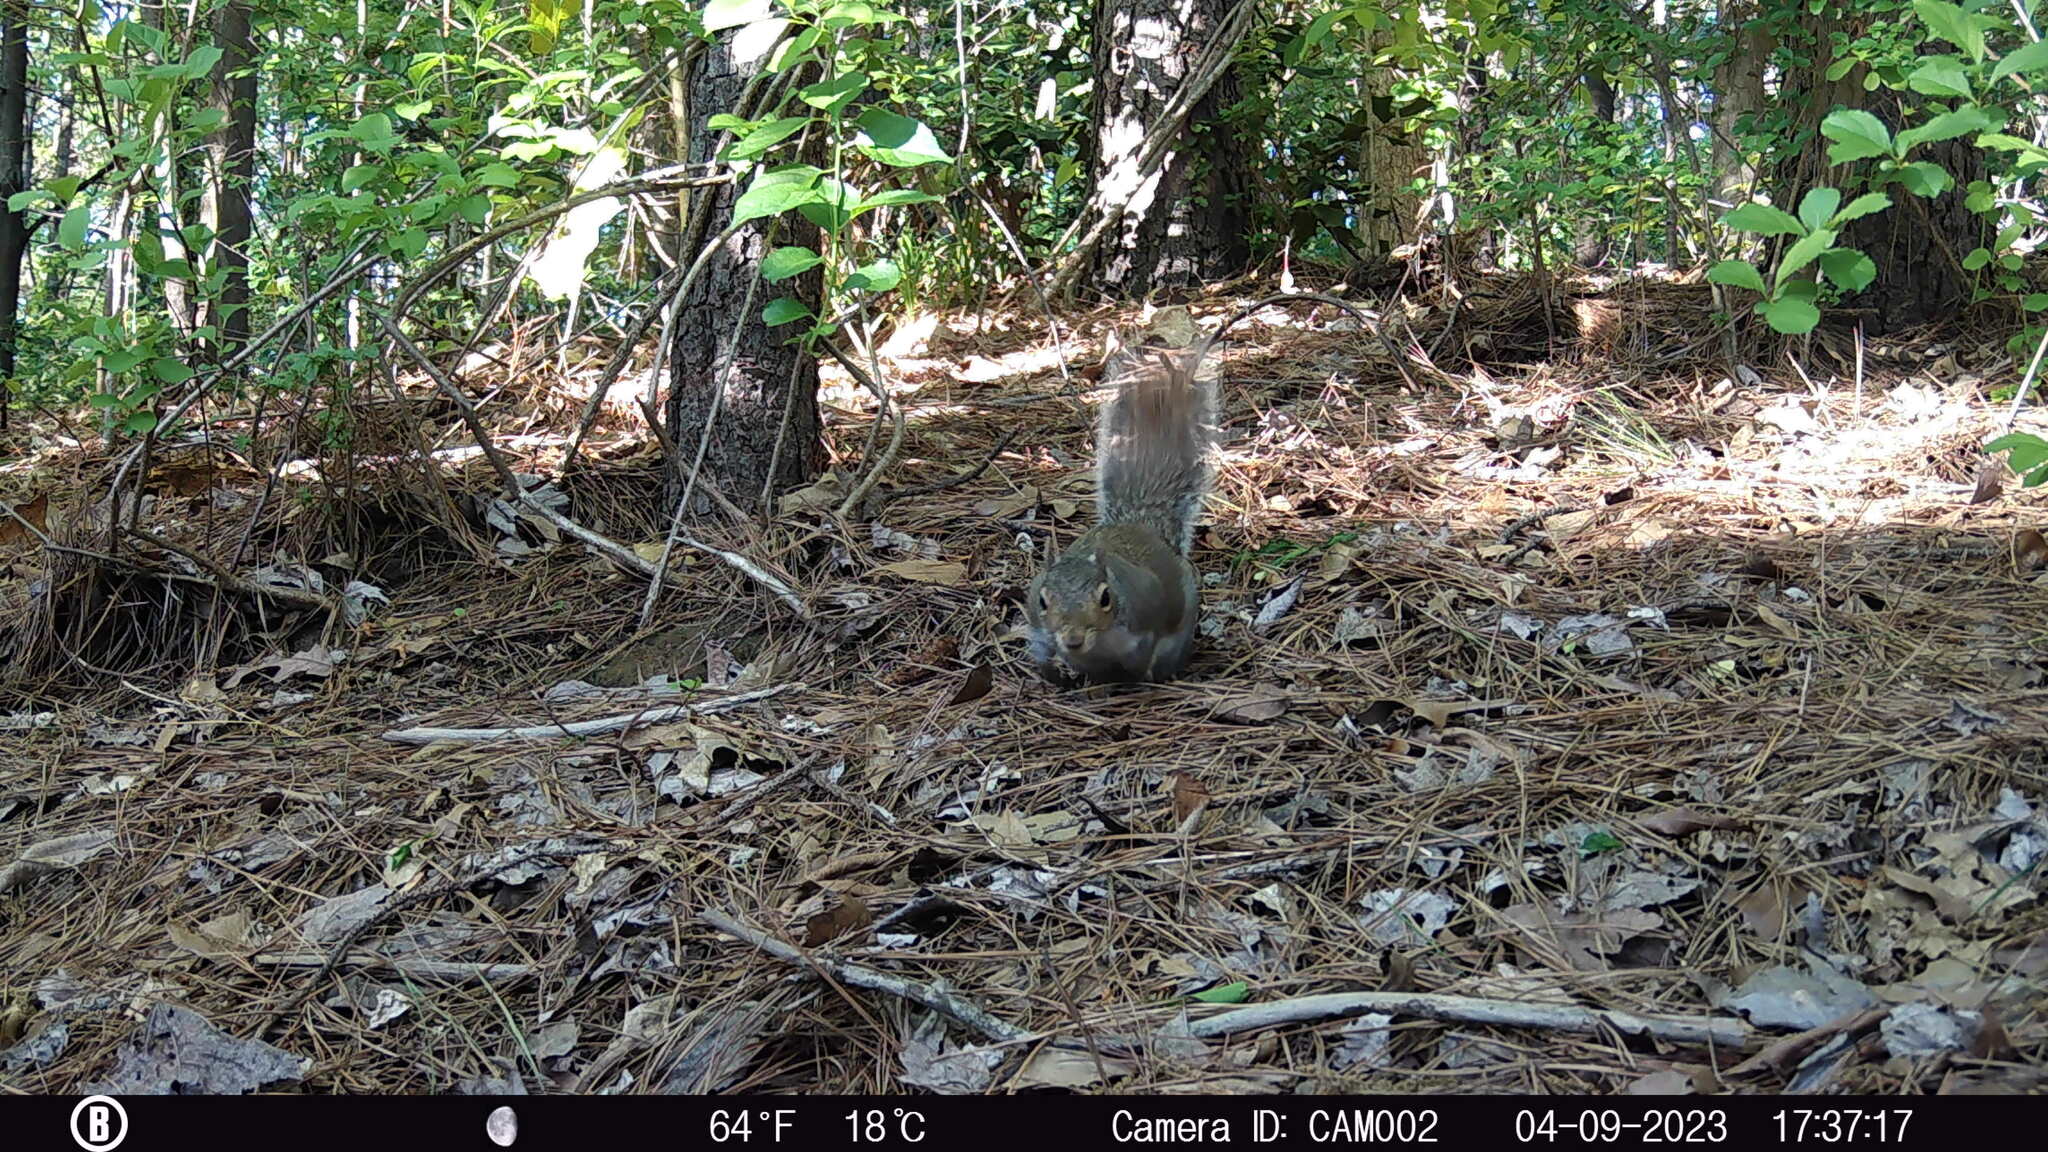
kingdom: Animalia
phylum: Chordata
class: Mammalia
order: Rodentia
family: Sciuridae
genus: Sciurus
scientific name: Sciurus carolinensis
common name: Eastern gray squirrel
